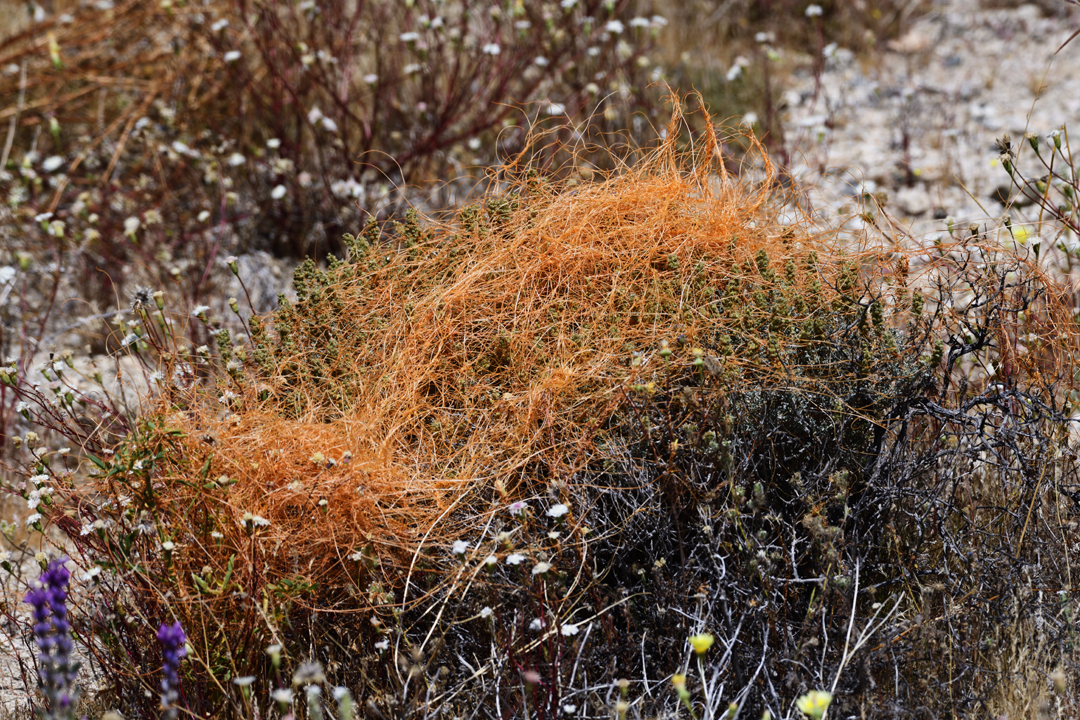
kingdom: Plantae
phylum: Tracheophyta
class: Magnoliopsida
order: Solanales
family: Convolvulaceae
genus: Cuscuta
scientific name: Cuscuta denticulata
